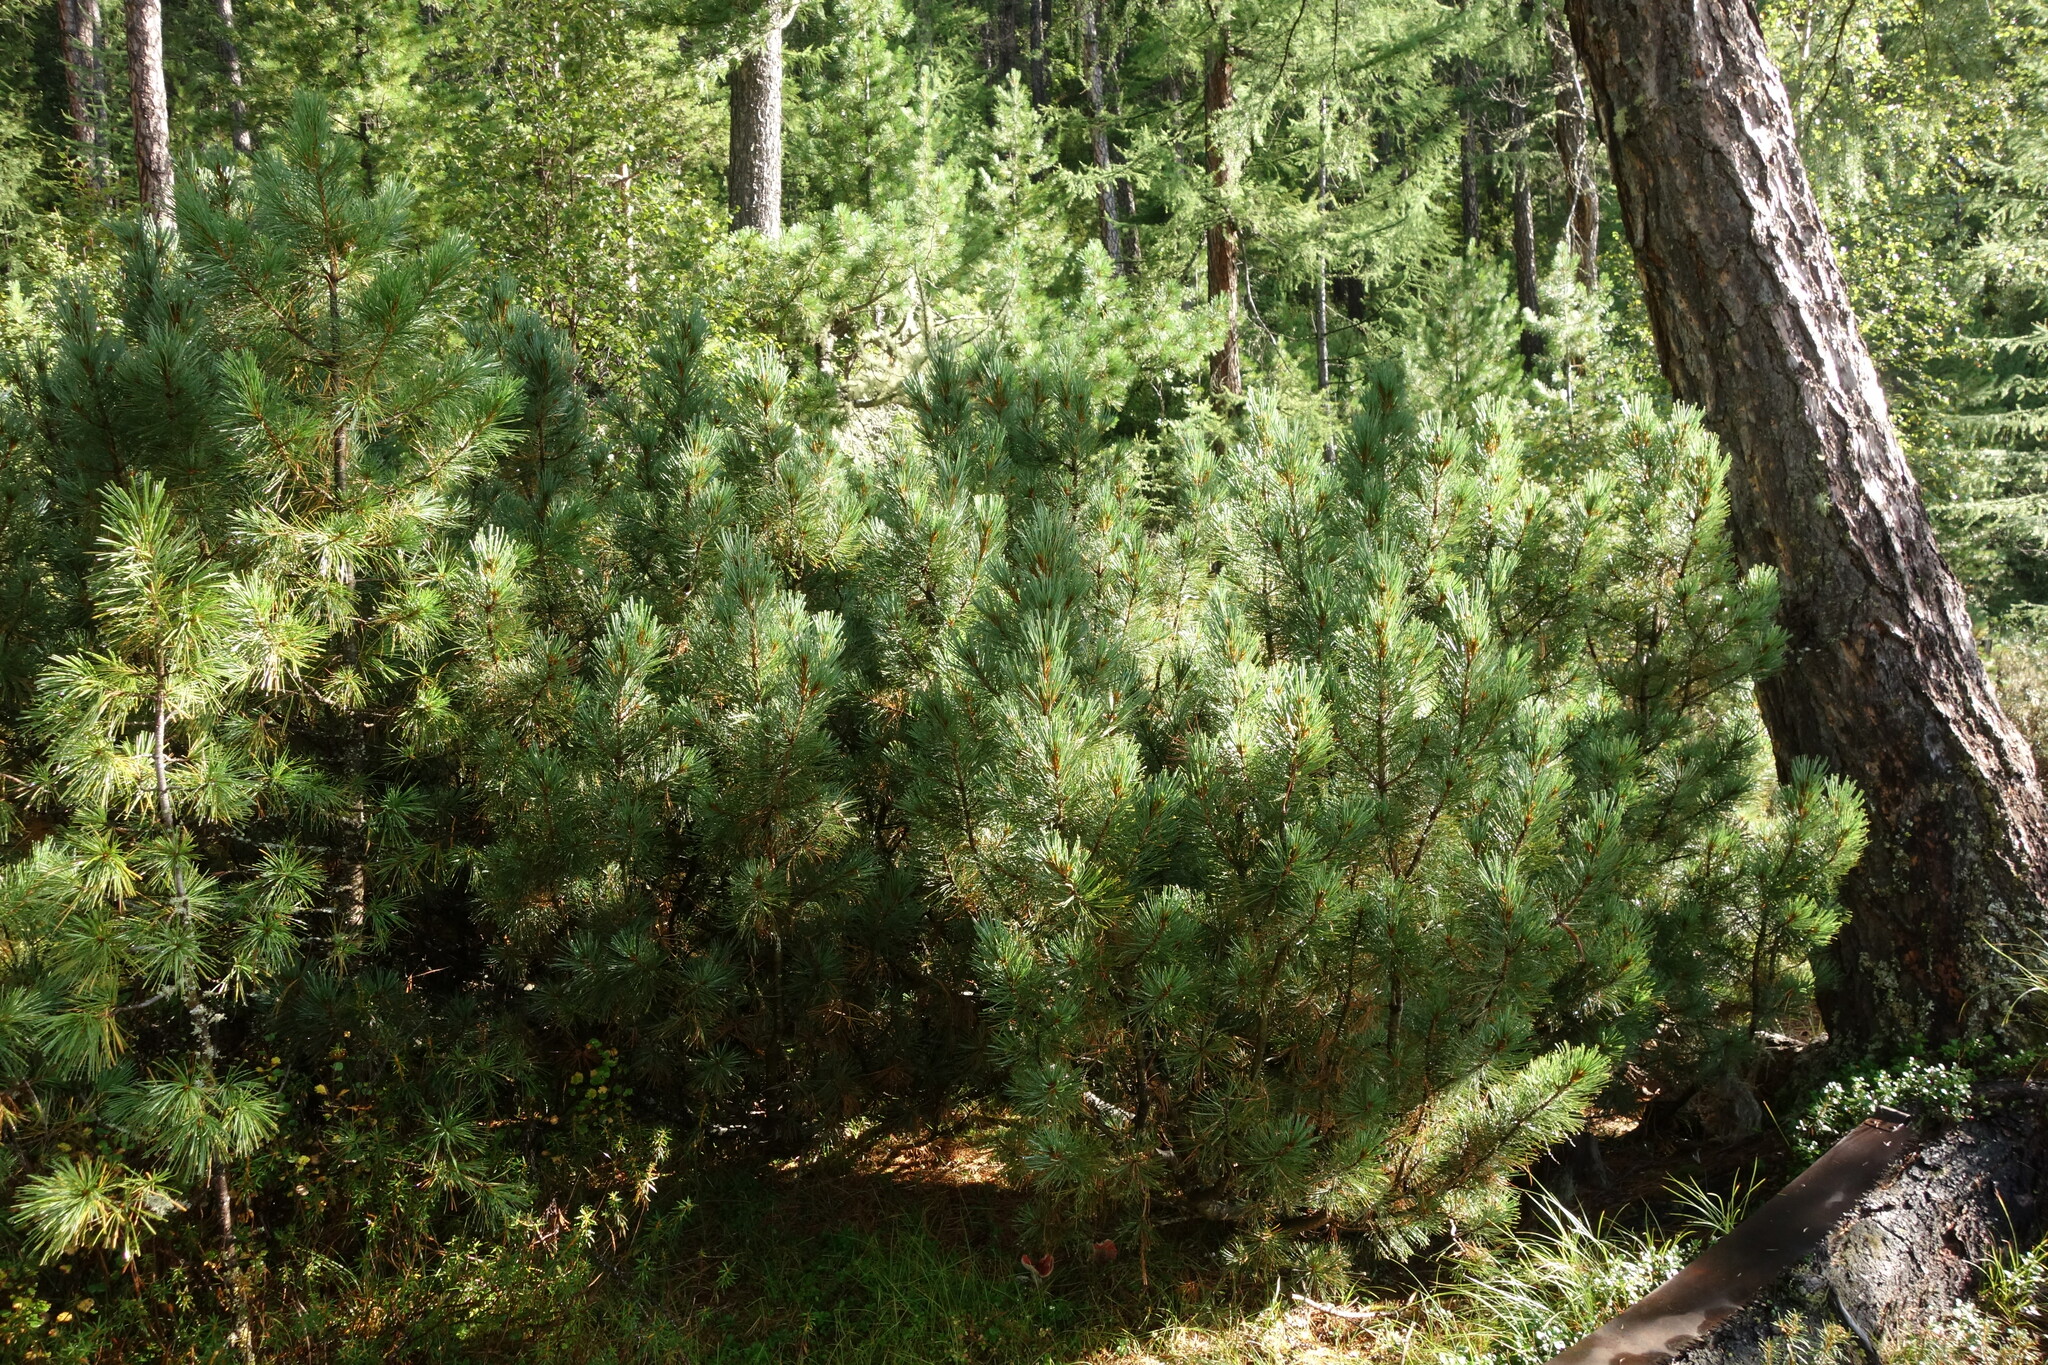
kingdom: Plantae
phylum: Tracheophyta
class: Pinopsida
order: Pinales
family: Pinaceae
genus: Pinus
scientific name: Pinus pumila
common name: Dwarf siberian pine
